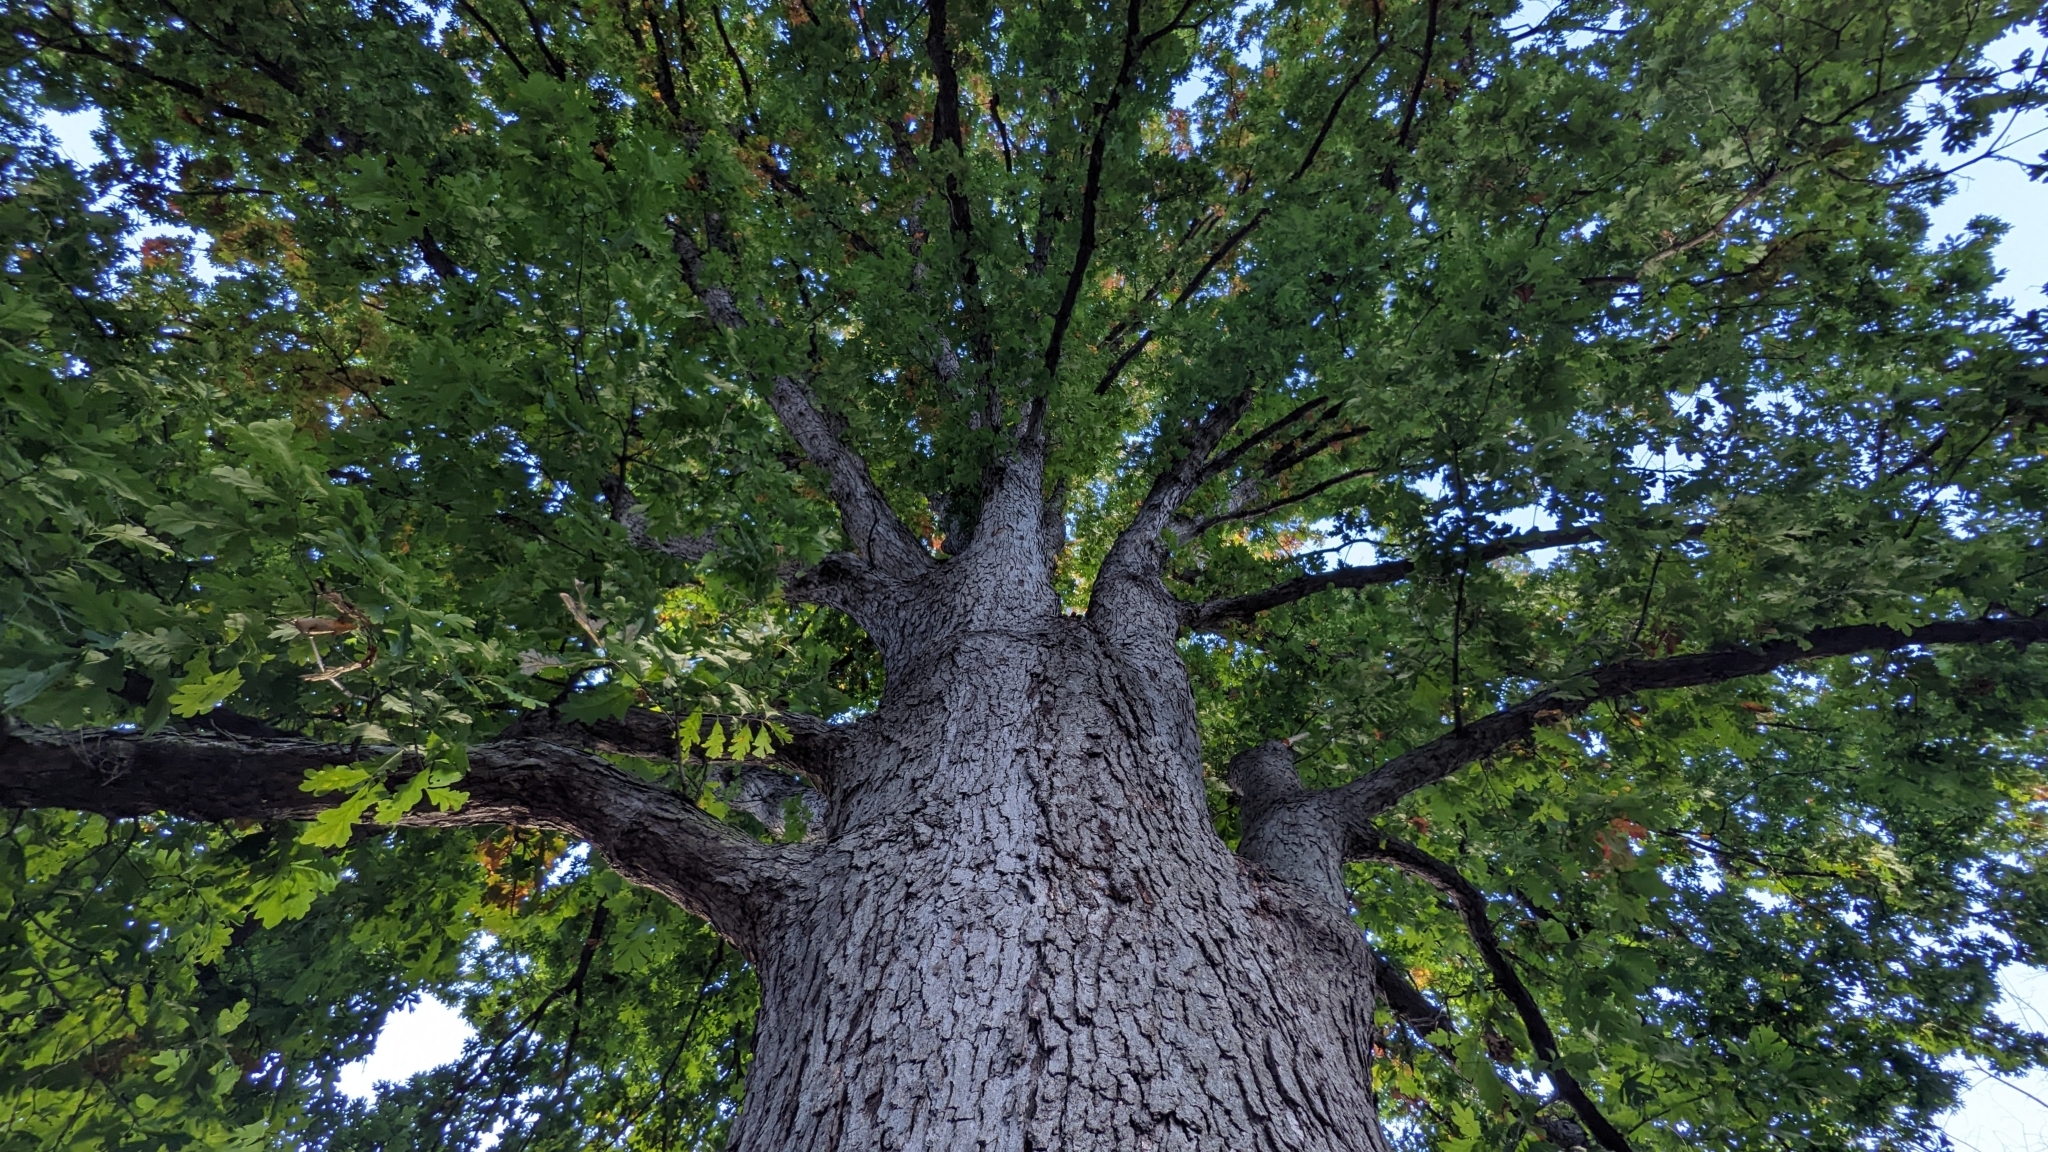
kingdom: Plantae
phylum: Tracheophyta
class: Magnoliopsida
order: Fagales
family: Fagaceae
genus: Quercus
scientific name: Quercus alba
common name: White oak
